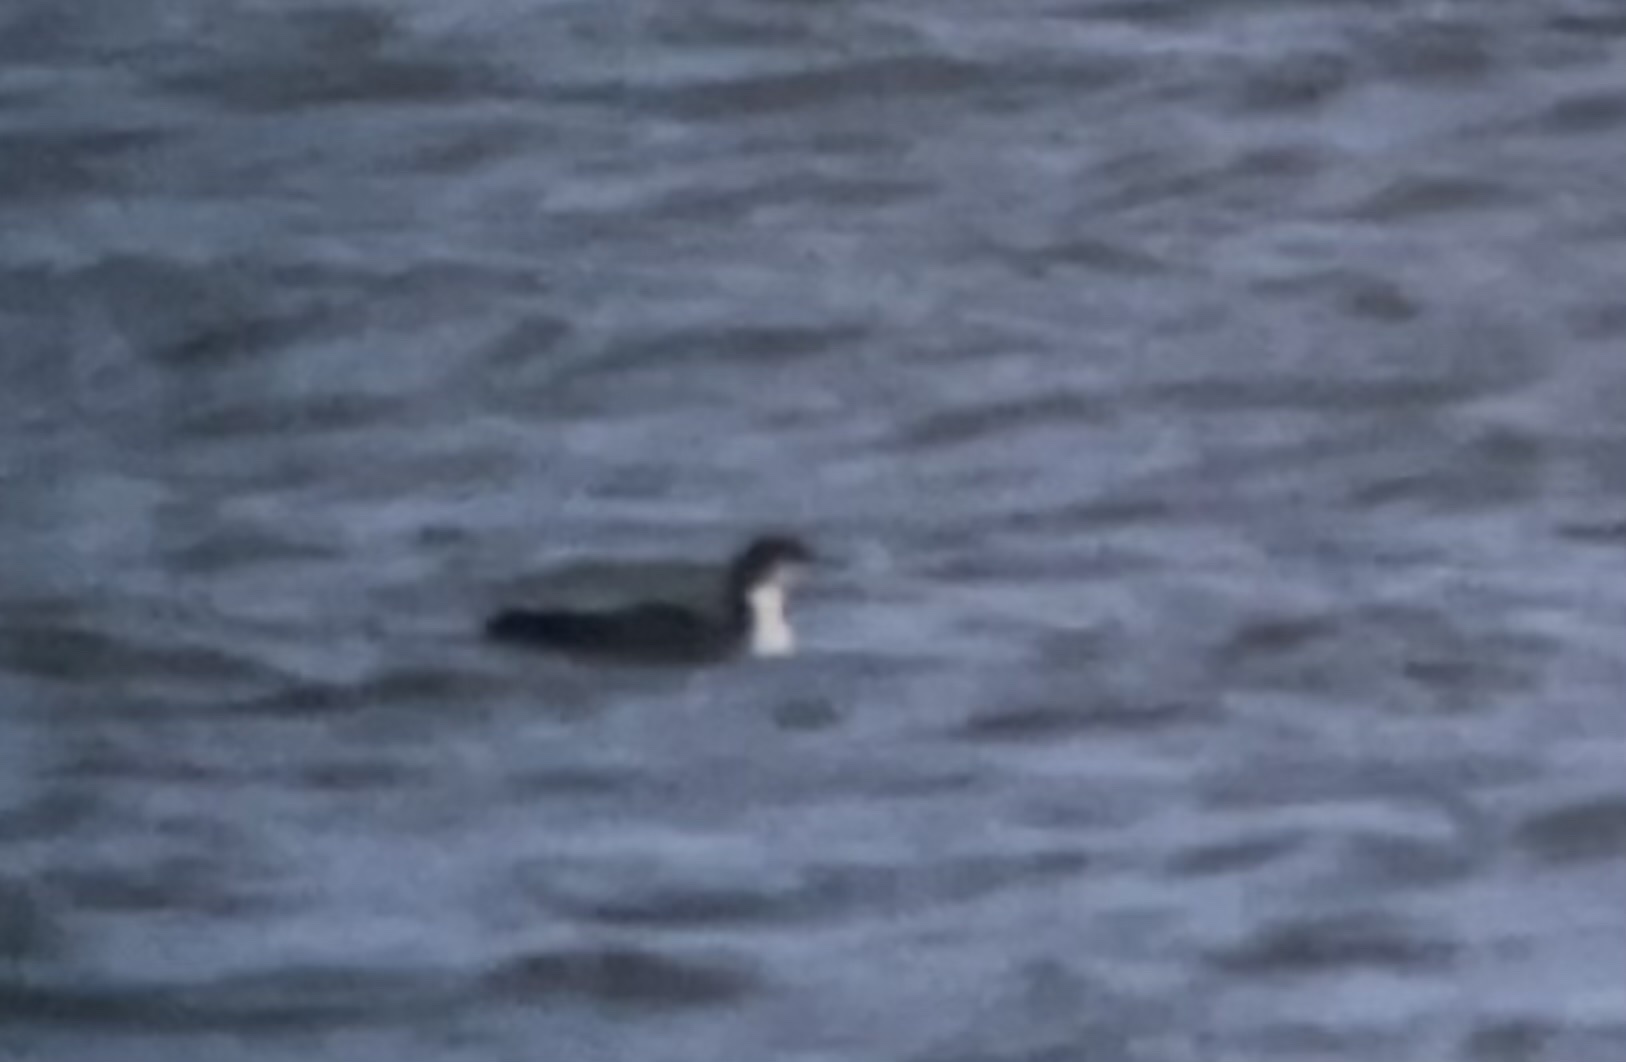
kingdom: Animalia
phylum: Chordata
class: Aves
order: Gaviiformes
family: Gaviidae
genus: Gavia
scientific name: Gavia arctica
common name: Black-throated loon
